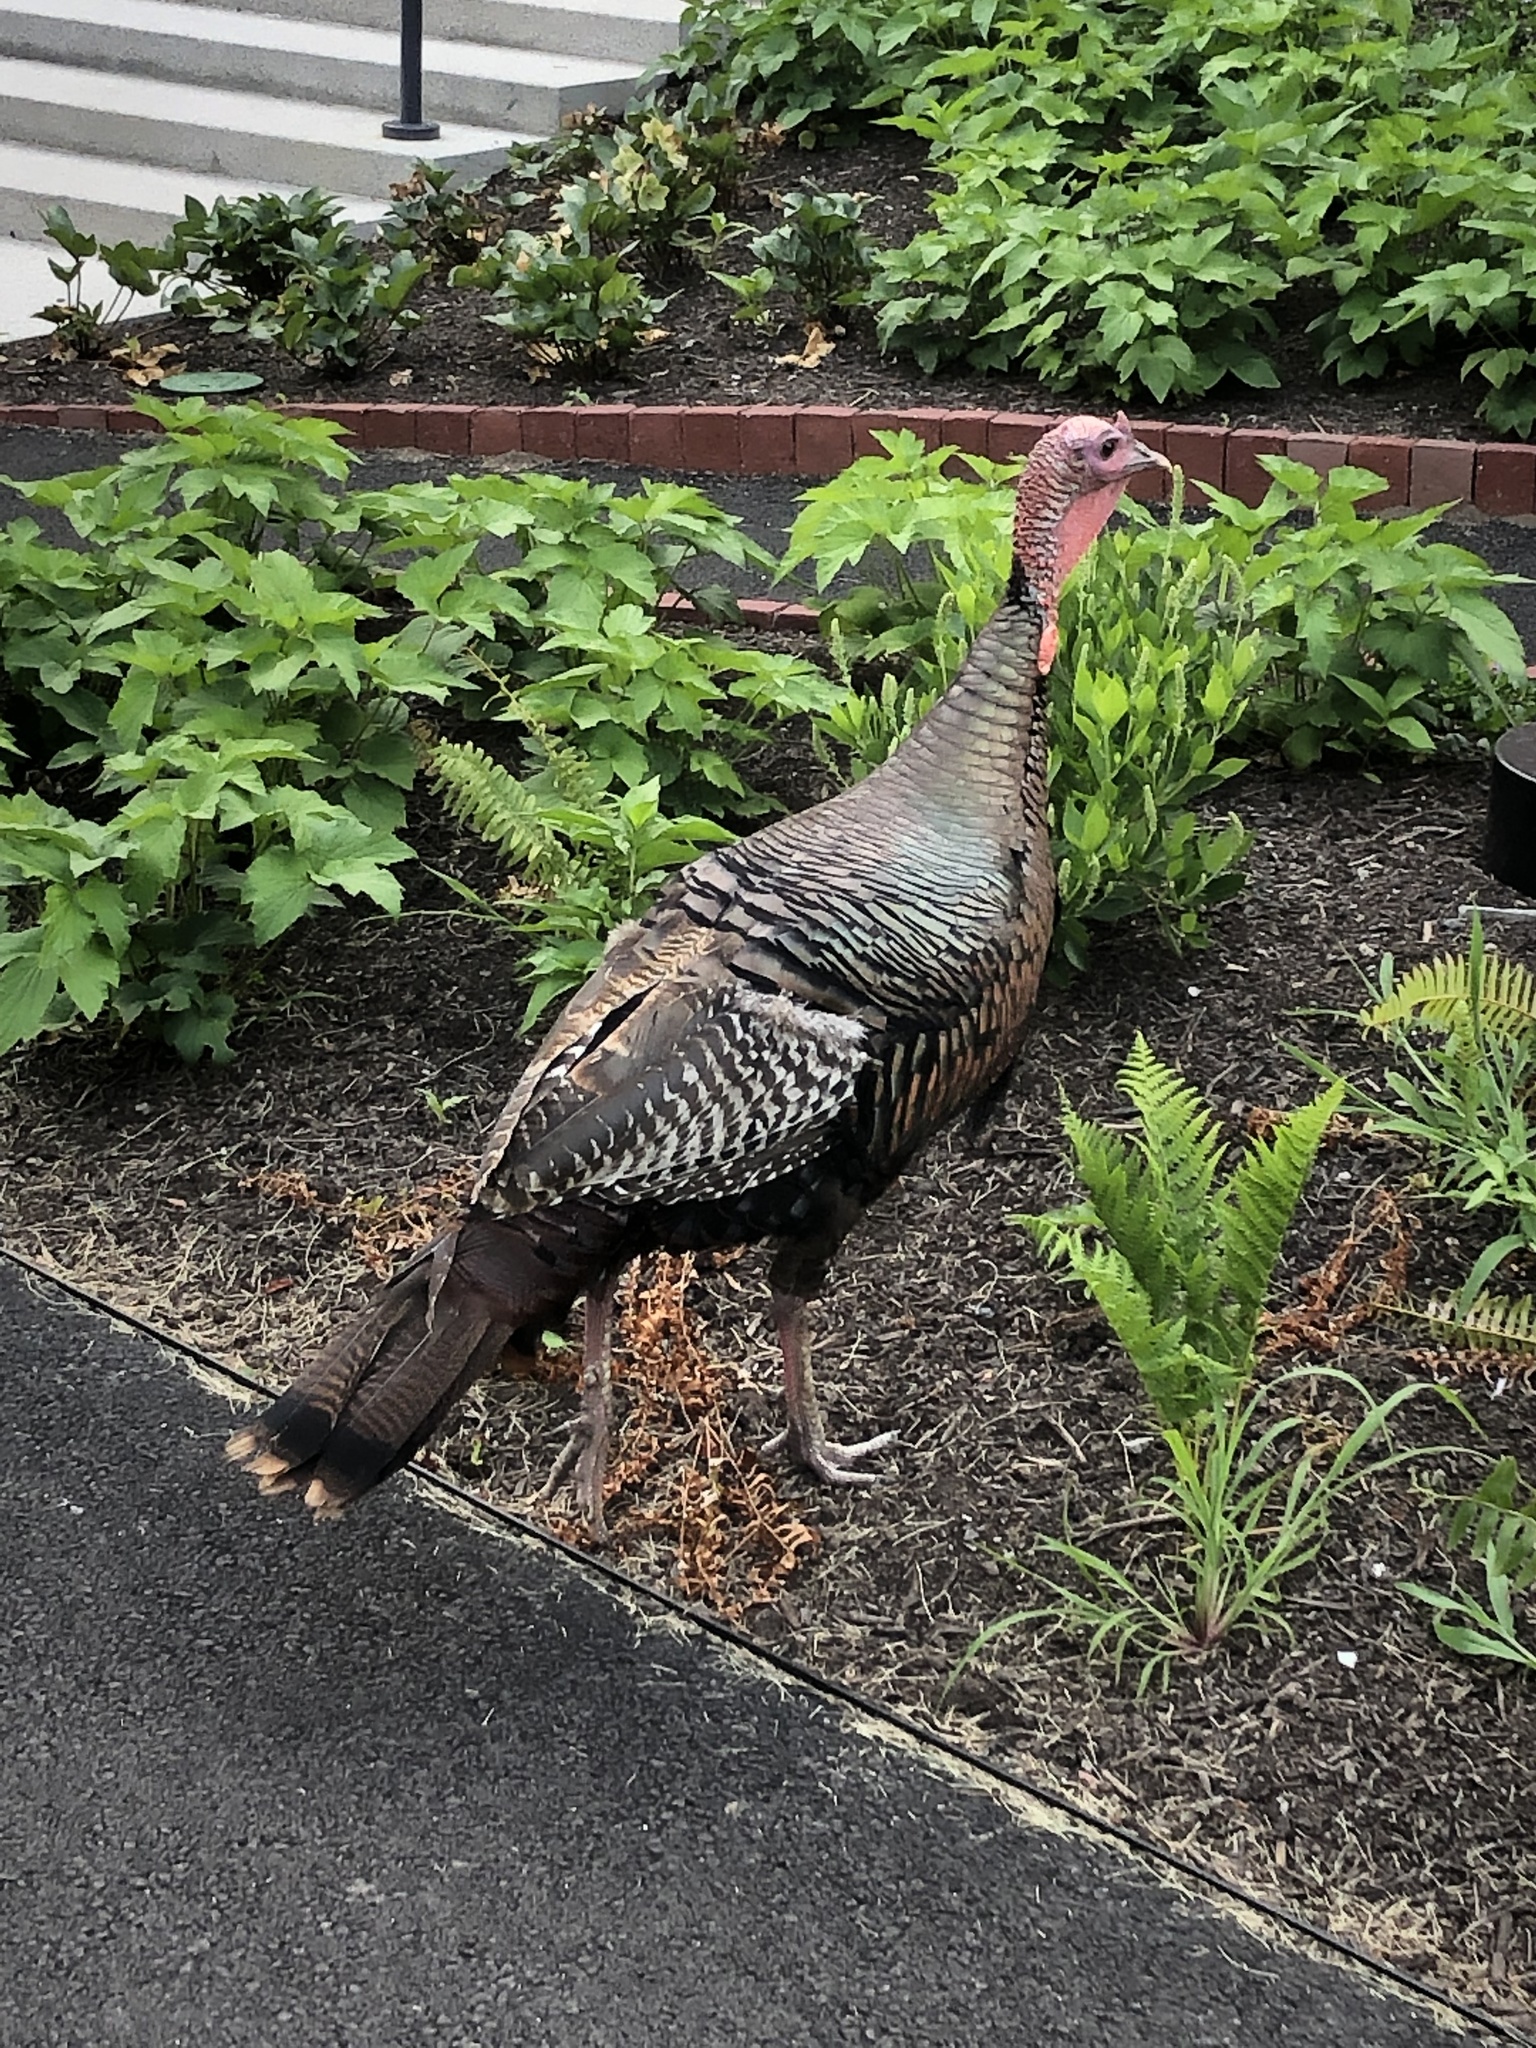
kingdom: Animalia
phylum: Chordata
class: Aves
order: Galliformes
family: Phasianidae
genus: Meleagris
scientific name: Meleagris gallopavo
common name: Wild turkey
